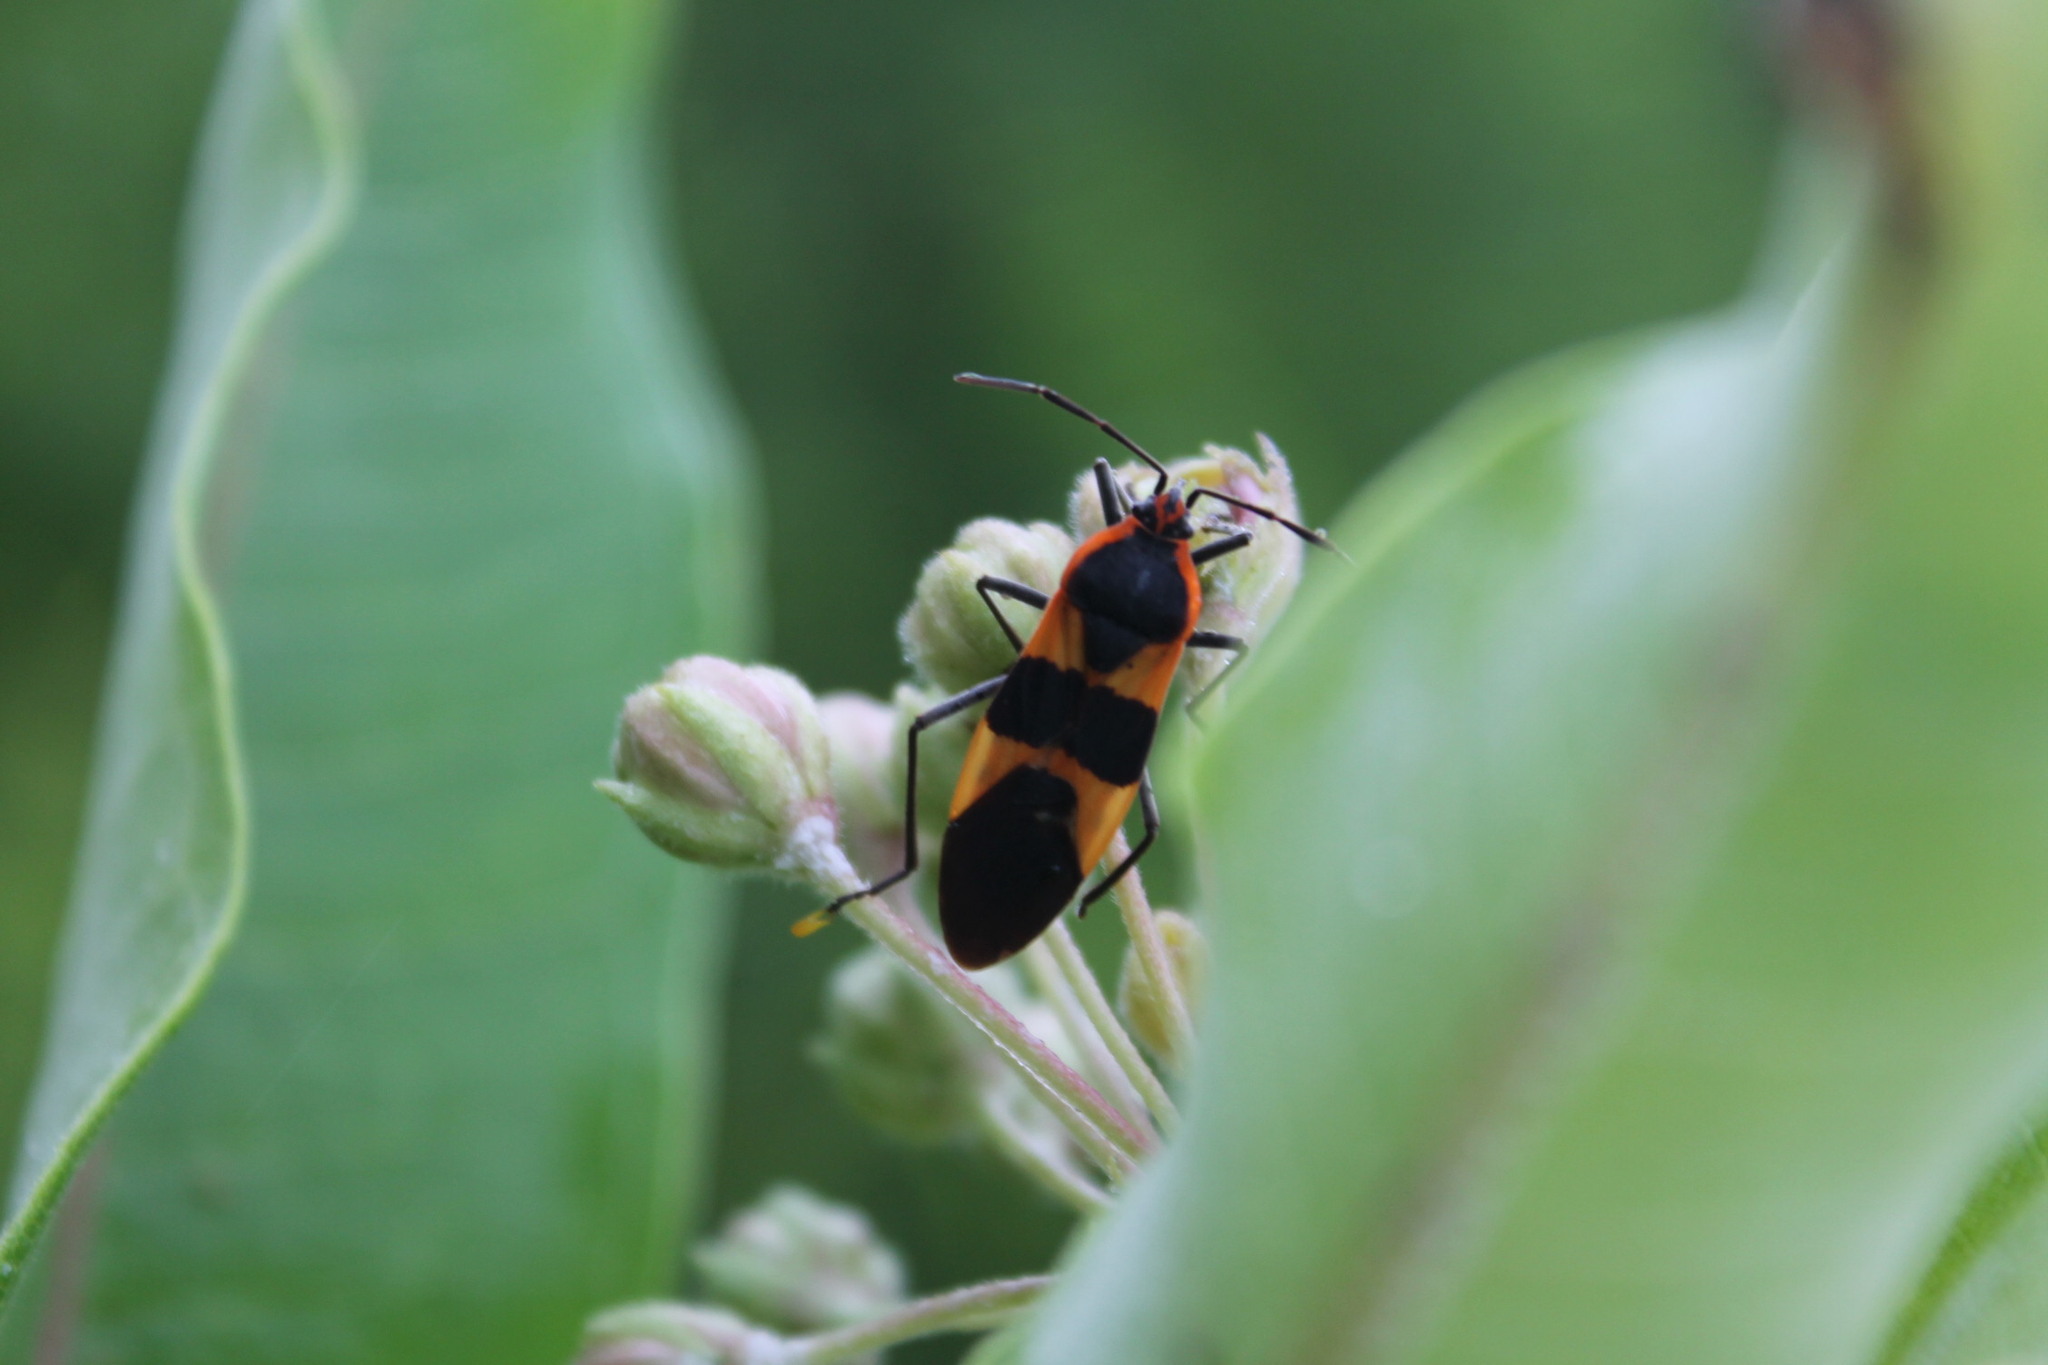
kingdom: Animalia
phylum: Arthropoda
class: Insecta
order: Hemiptera
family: Lygaeidae
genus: Oncopeltus
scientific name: Oncopeltus fasciatus
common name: Large milkweed bug
